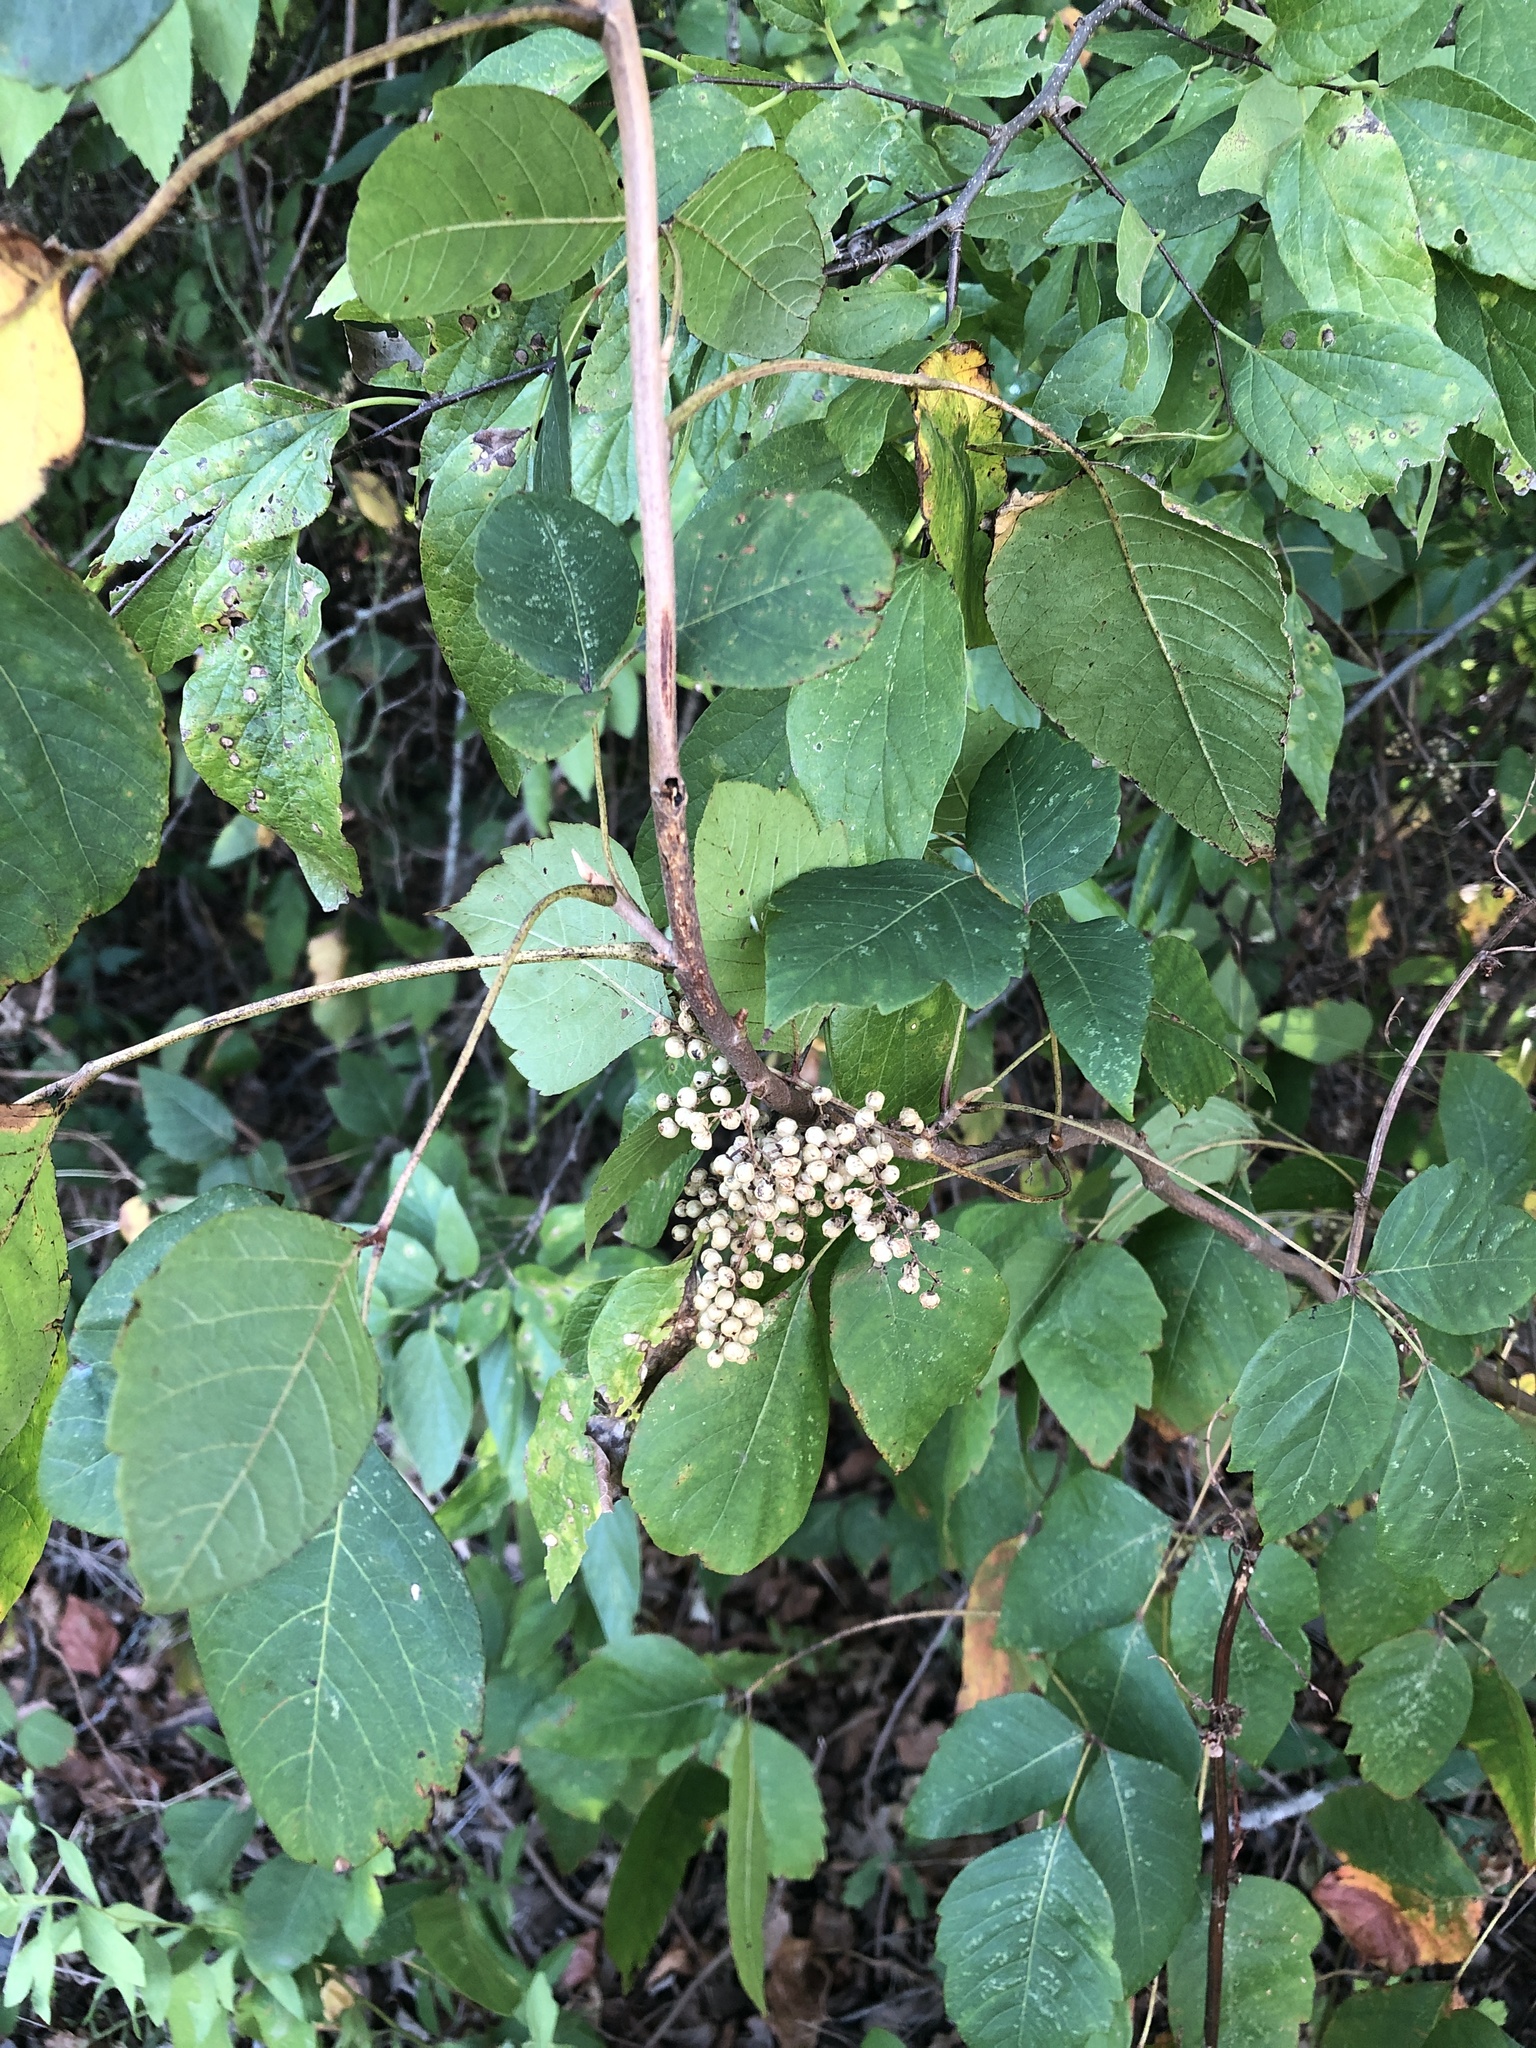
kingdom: Plantae
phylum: Tracheophyta
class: Magnoliopsida
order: Sapindales
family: Anacardiaceae
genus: Toxicodendron
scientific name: Toxicodendron radicans
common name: Poison ivy
